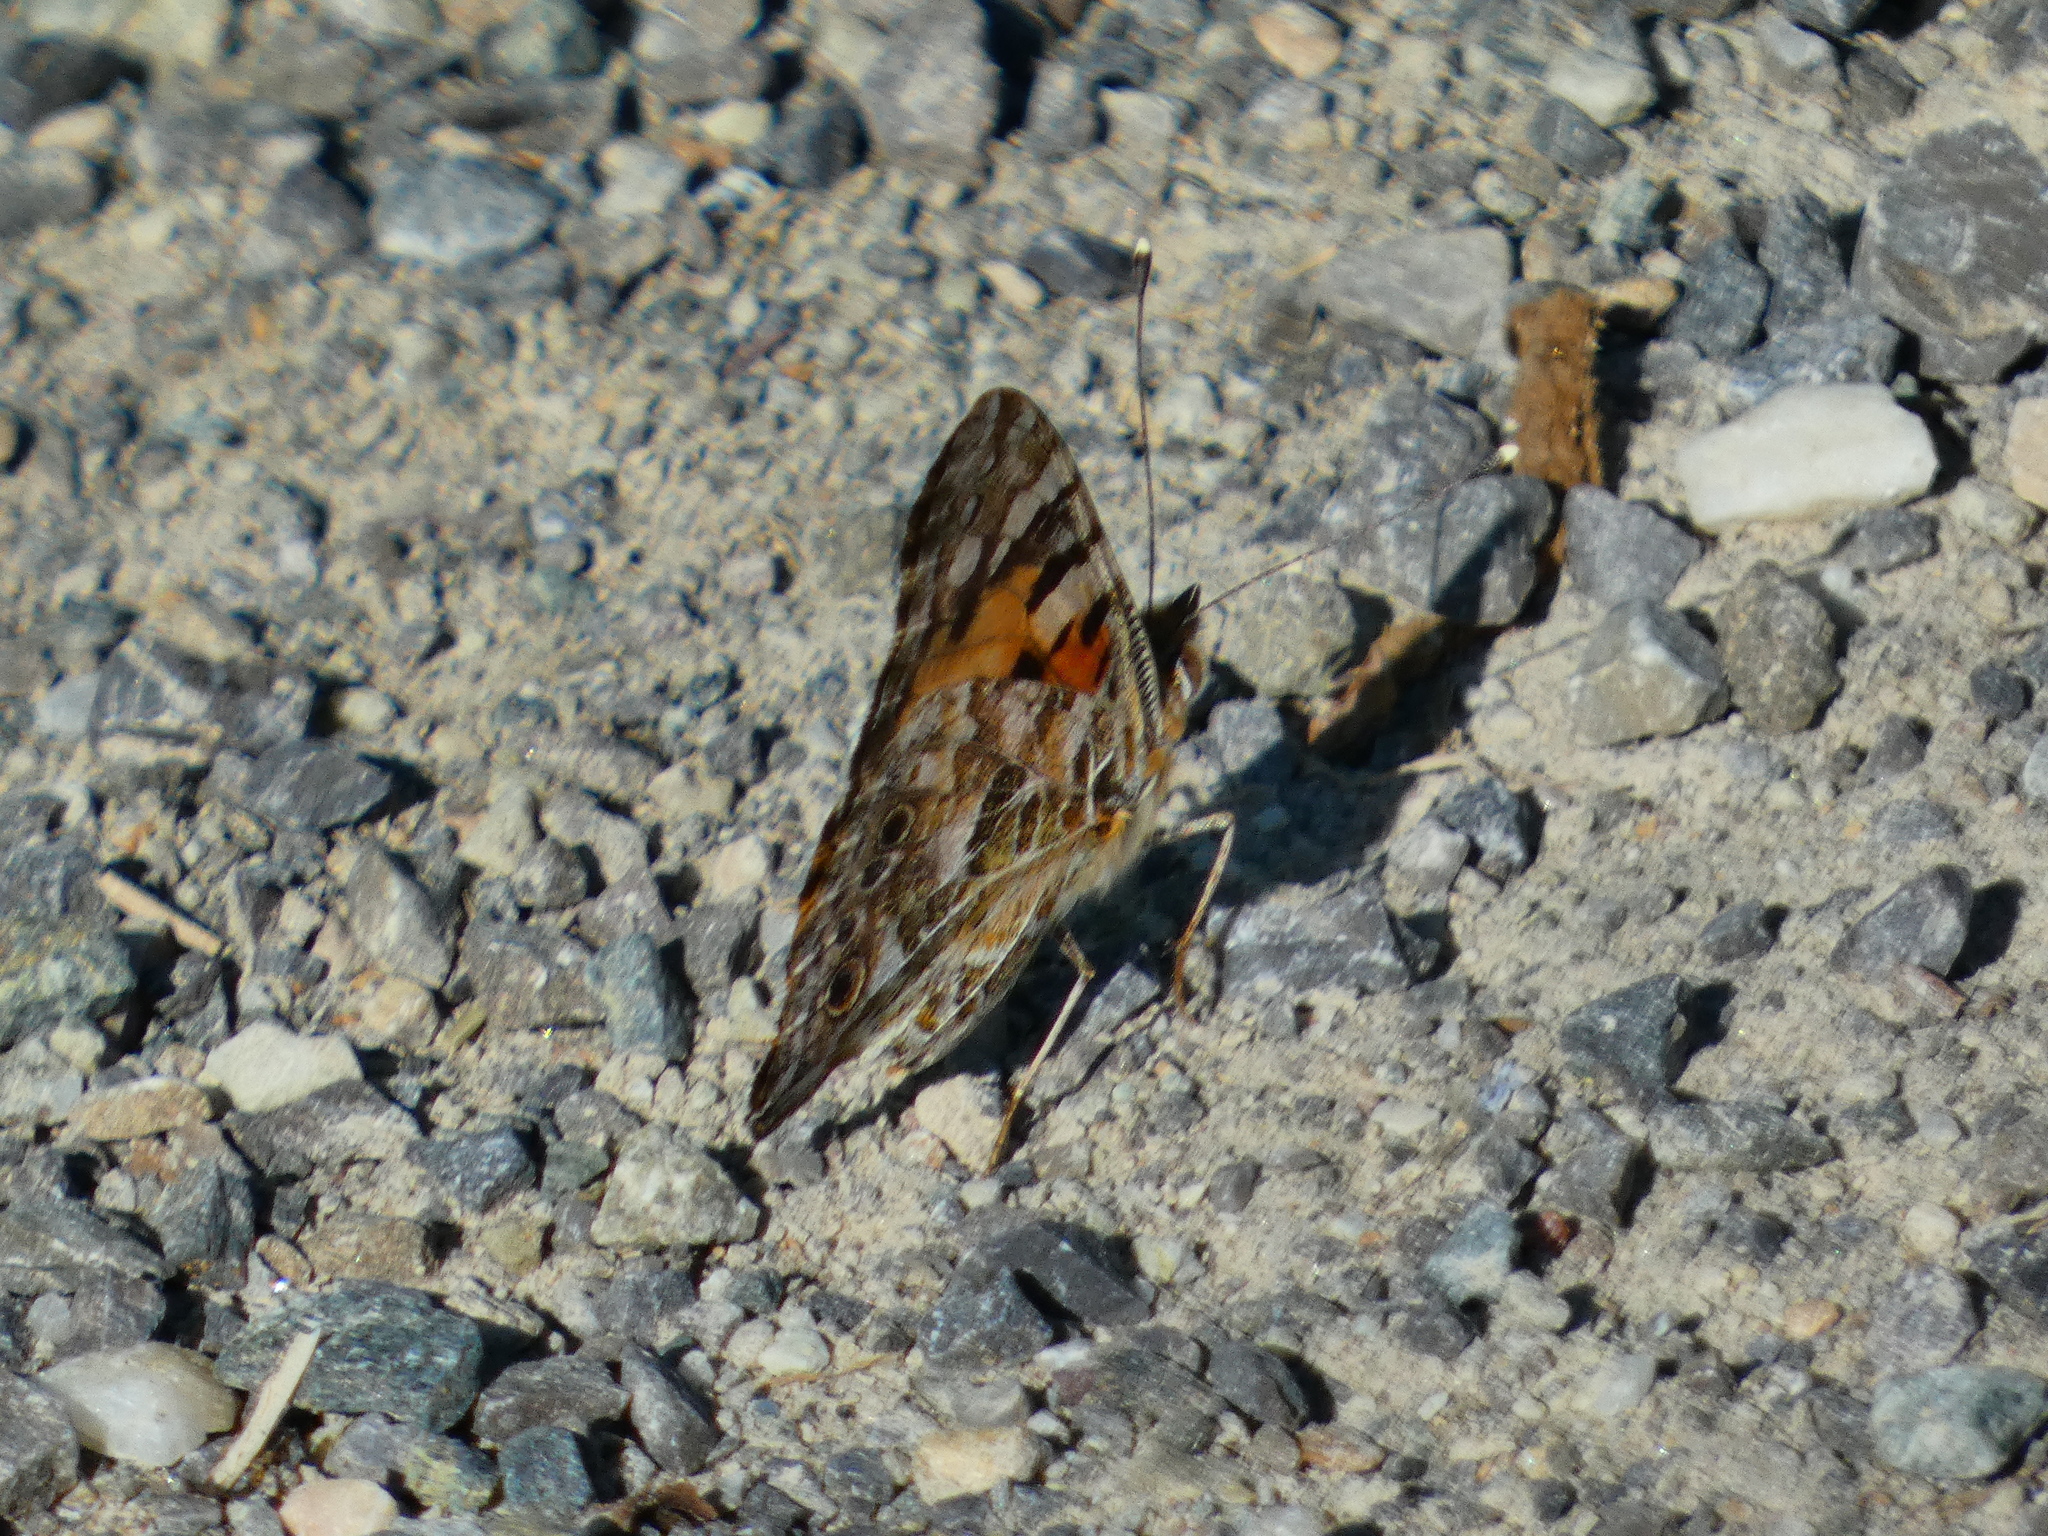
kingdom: Animalia
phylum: Arthropoda
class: Insecta
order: Lepidoptera
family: Nymphalidae
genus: Vanessa
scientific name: Vanessa cardui
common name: Painted lady
